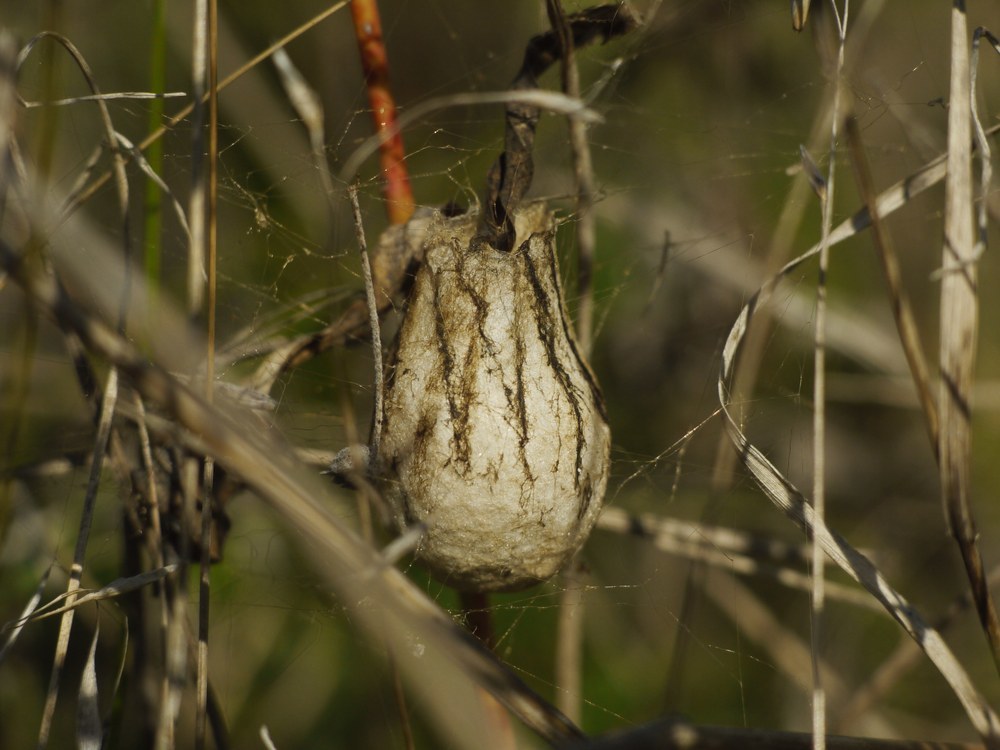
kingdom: Animalia
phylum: Arthropoda
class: Arachnida
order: Araneae
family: Araneidae
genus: Argiope
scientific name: Argiope bruennichi
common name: Wasp spider
